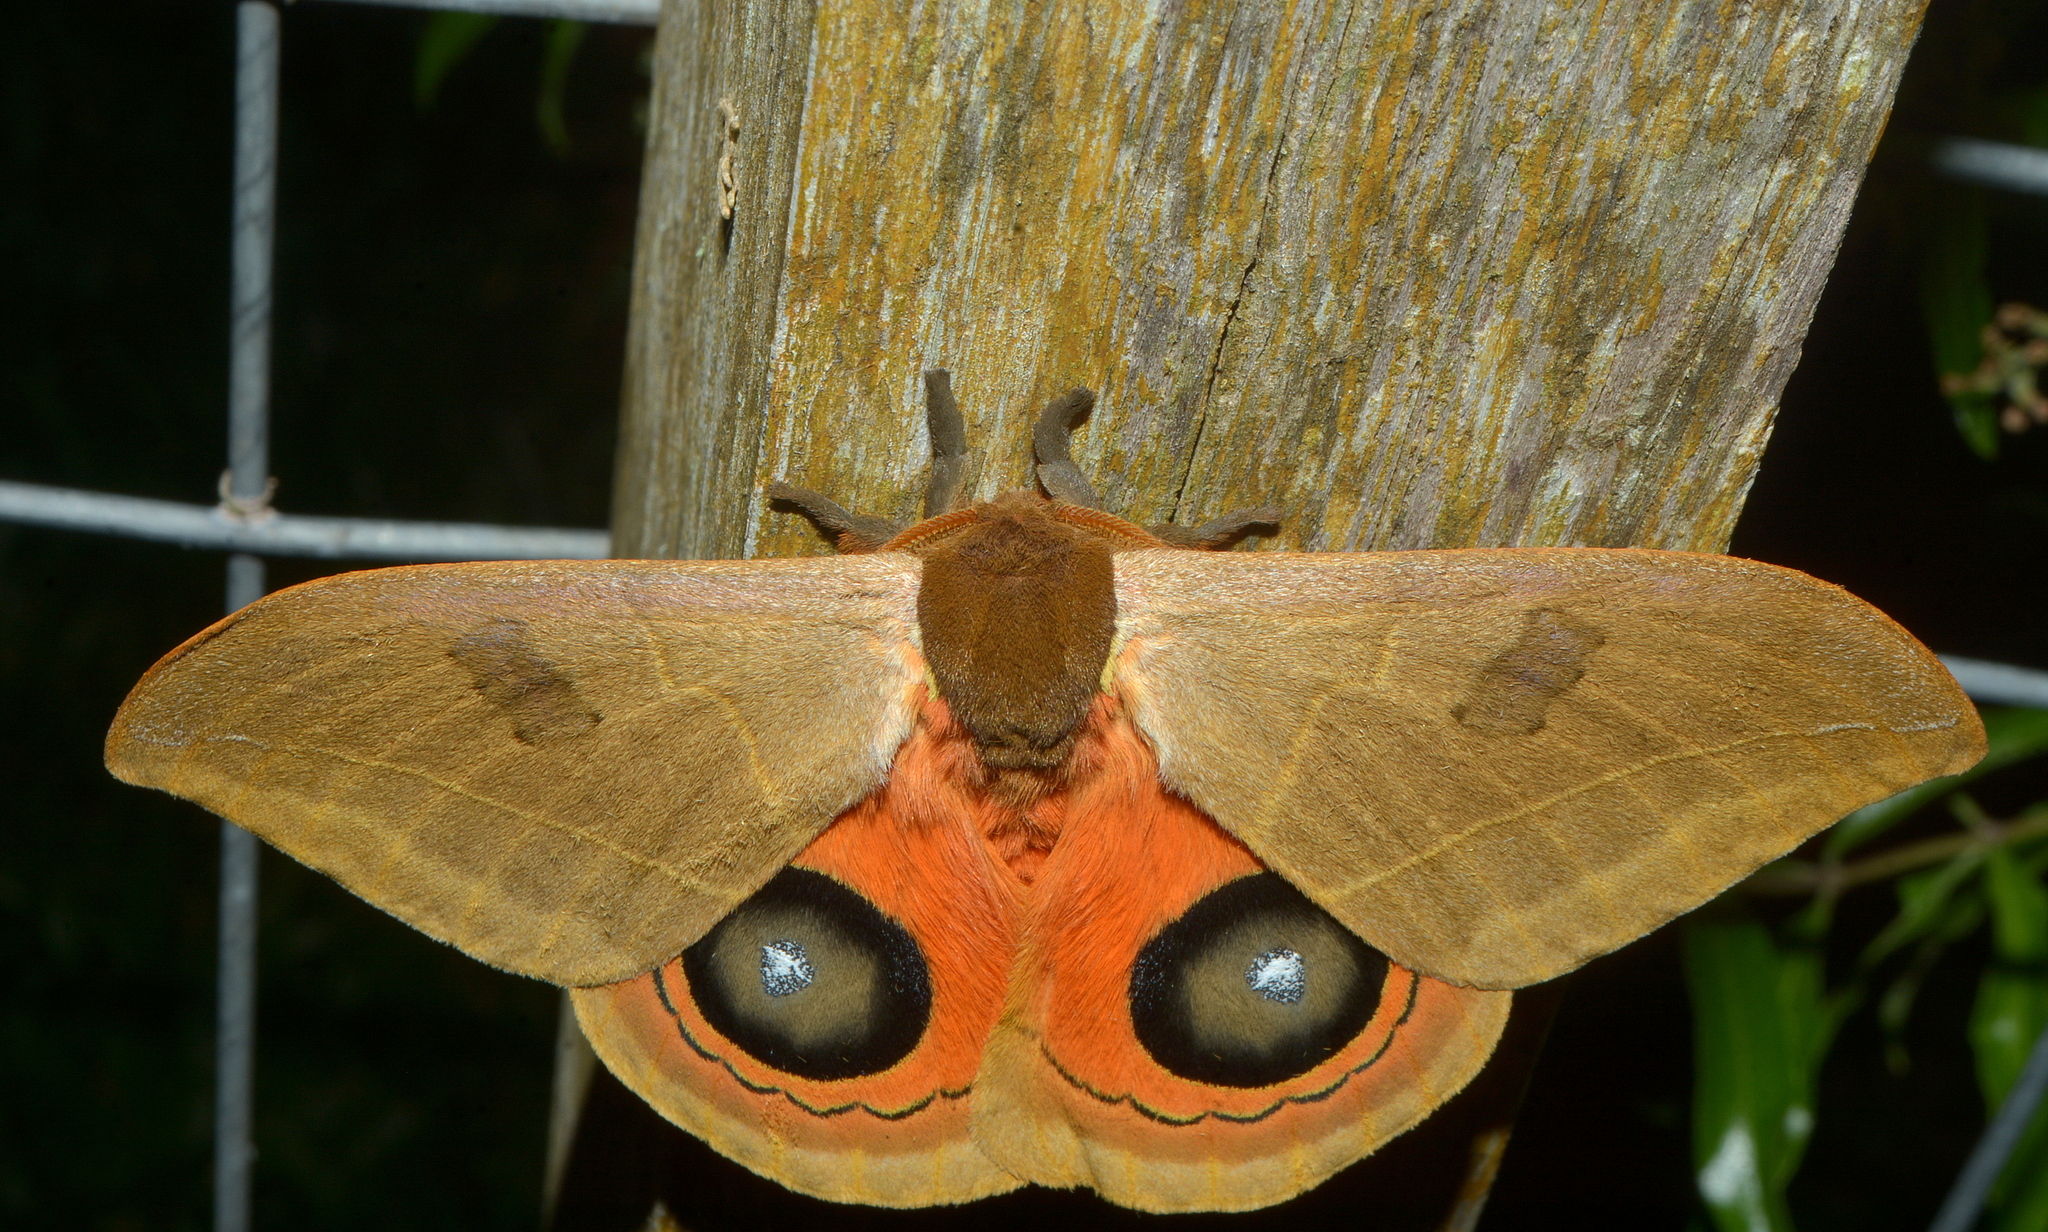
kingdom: Animalia
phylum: Arthropoda
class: Insecta
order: Lepidoptera
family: Saturniidae
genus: Automeris
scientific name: Automeris illustris
